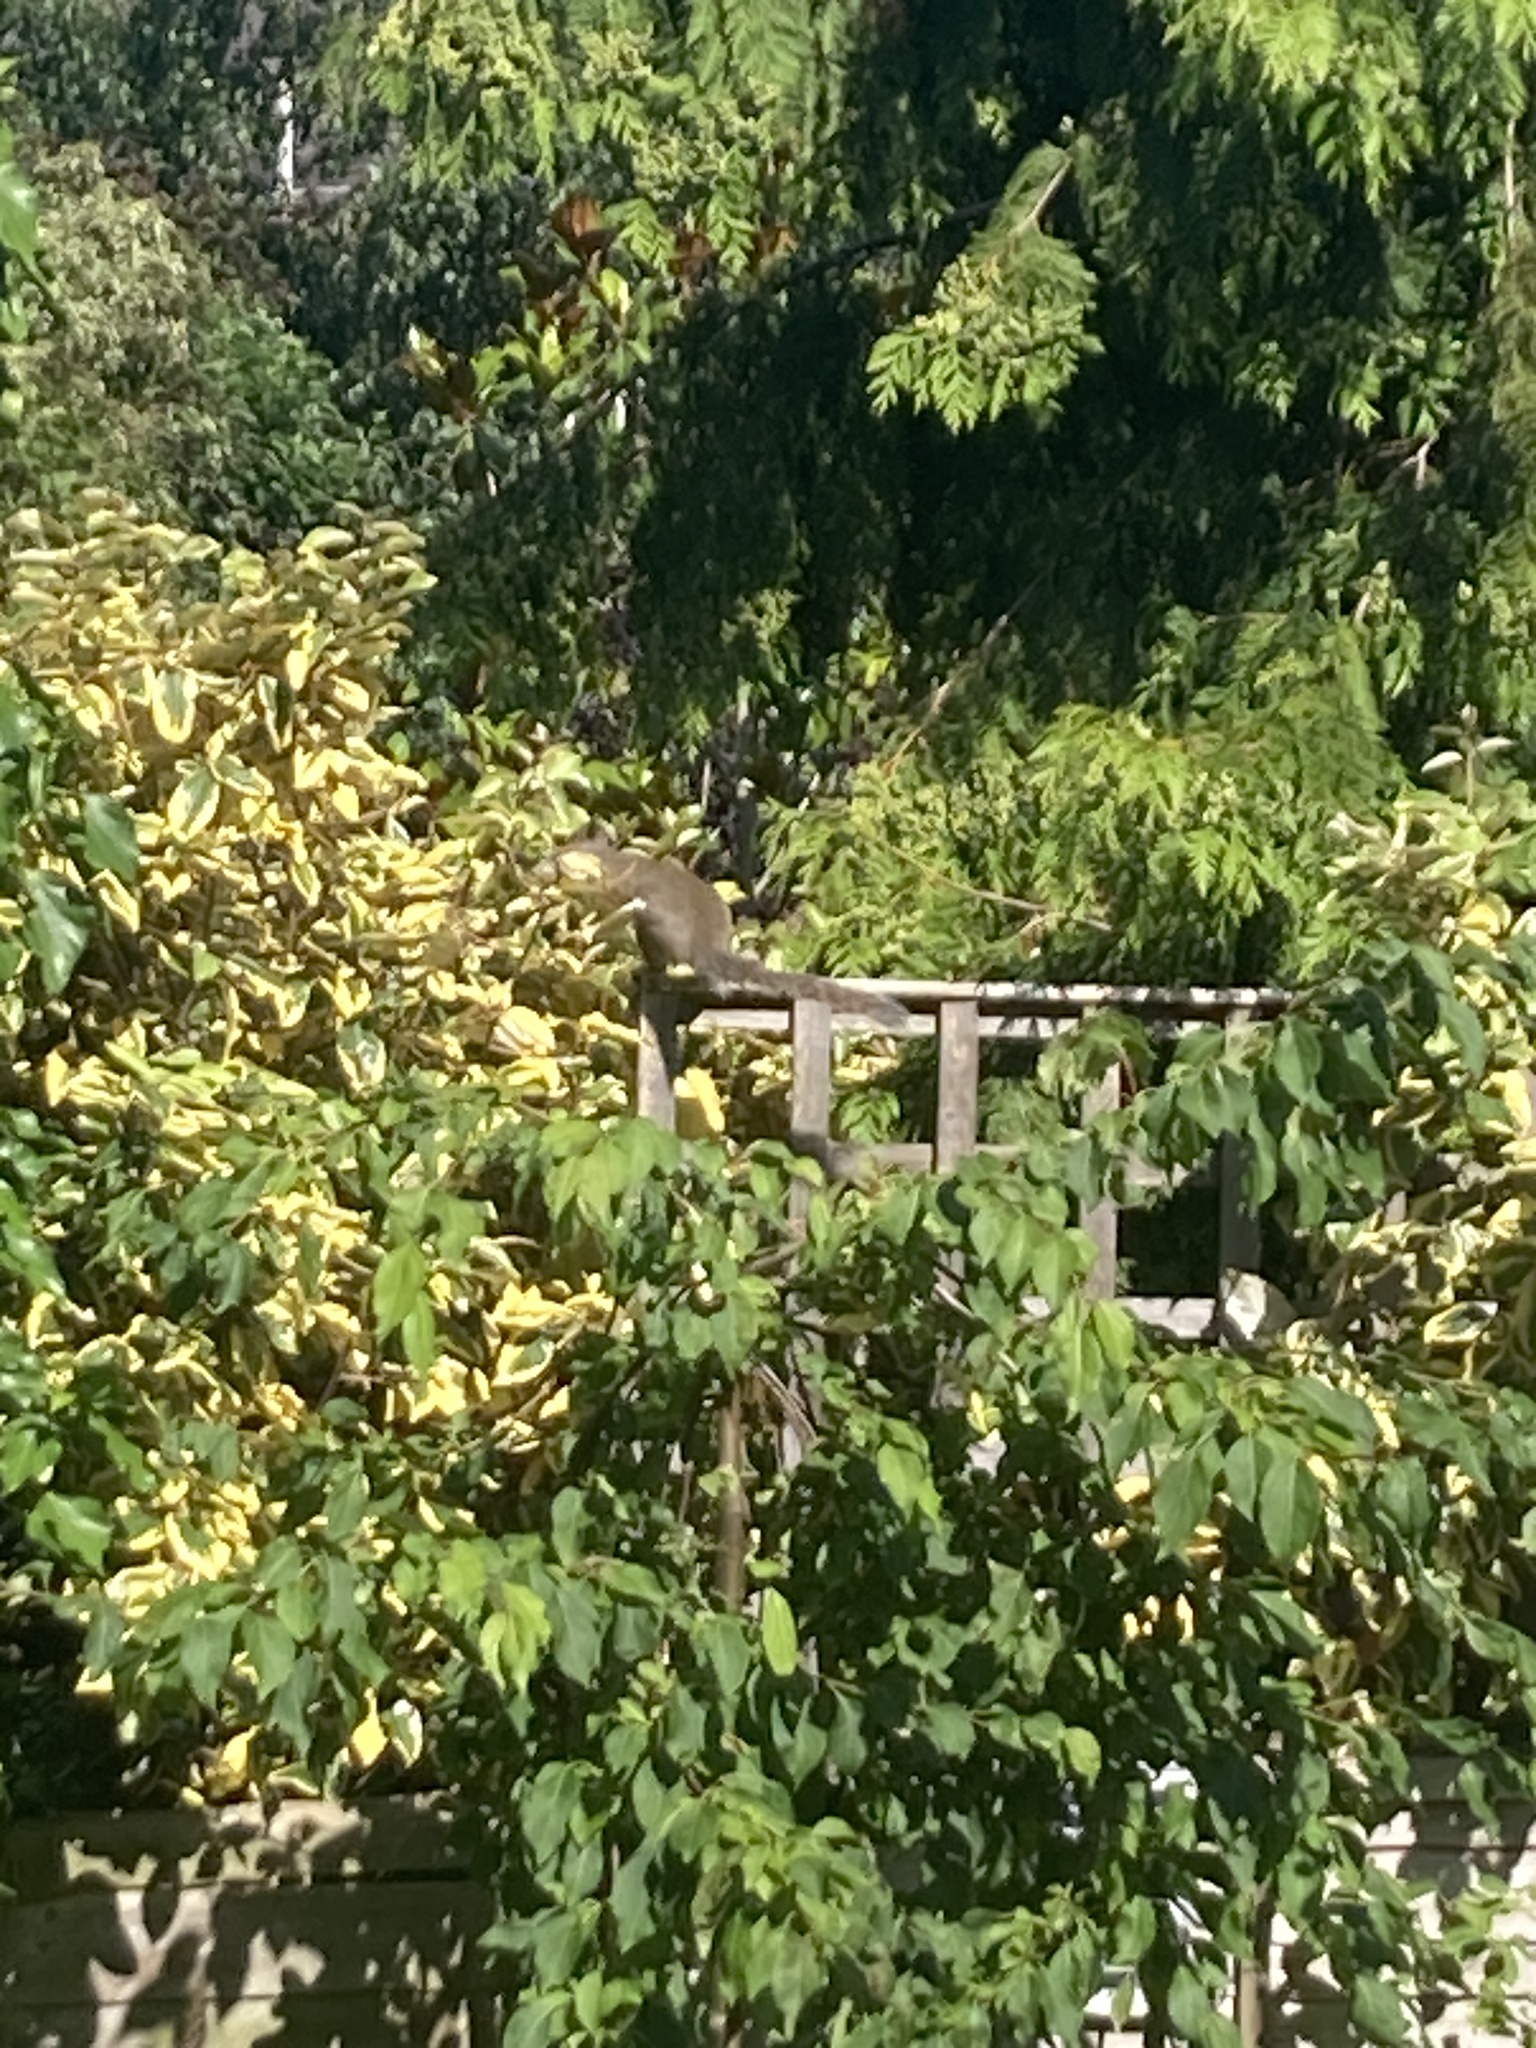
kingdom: Animalia
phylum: Chordata
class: Mammalia
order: Rodentia
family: Sciuridae
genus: Sciurus
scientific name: Sciurus carolinensis
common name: Eastern gray squirrel
